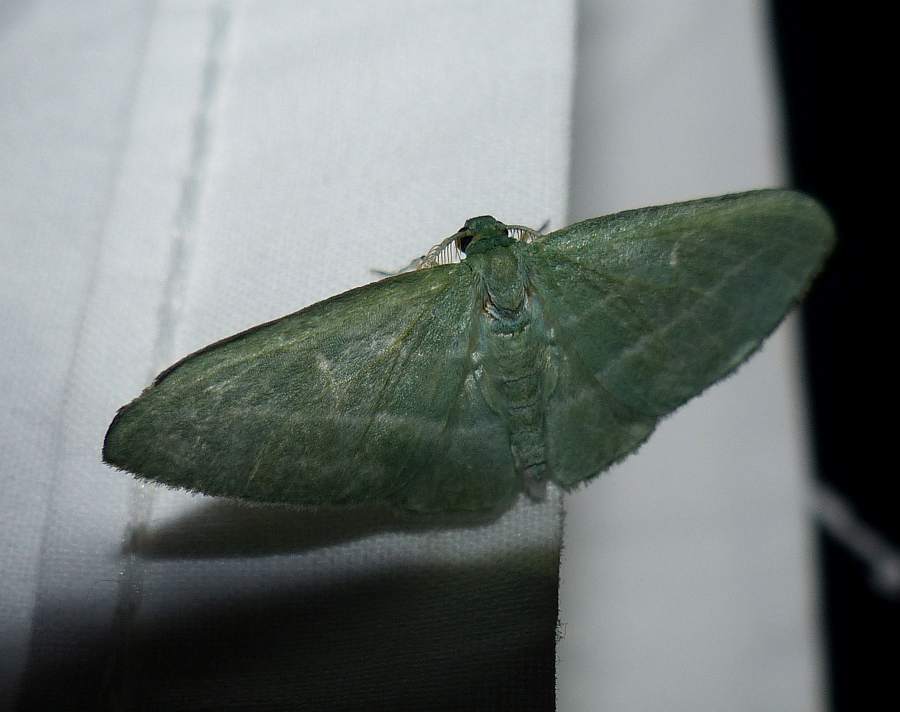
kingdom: Animalia
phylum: Arthropoda
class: Insecta
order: Lepidoptera
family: Geometridae
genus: Dyspteris
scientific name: Dyspteris abortivaria
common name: Bad-wing
